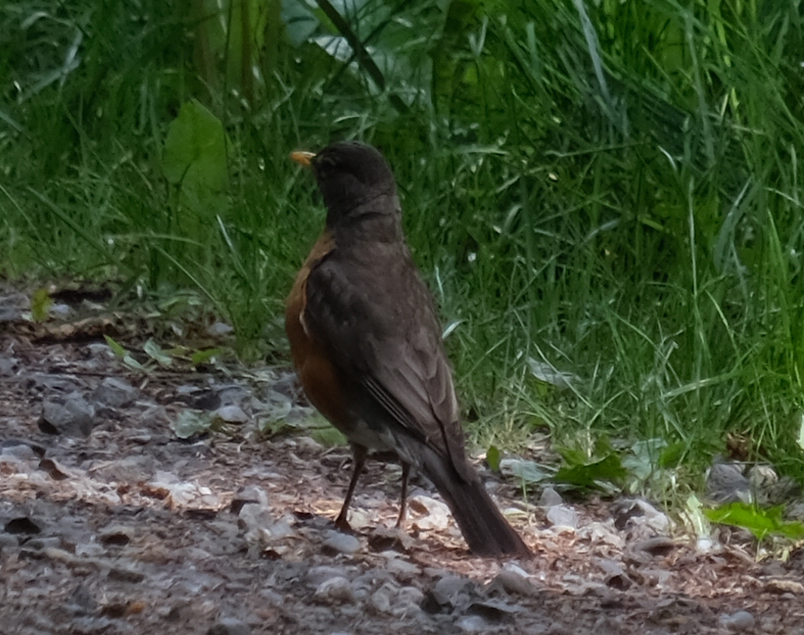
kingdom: Animalia
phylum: Chordata
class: Aves
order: Passeriformes
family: Turdidae
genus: Turdus
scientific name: Turdus migratorius
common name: American robin
